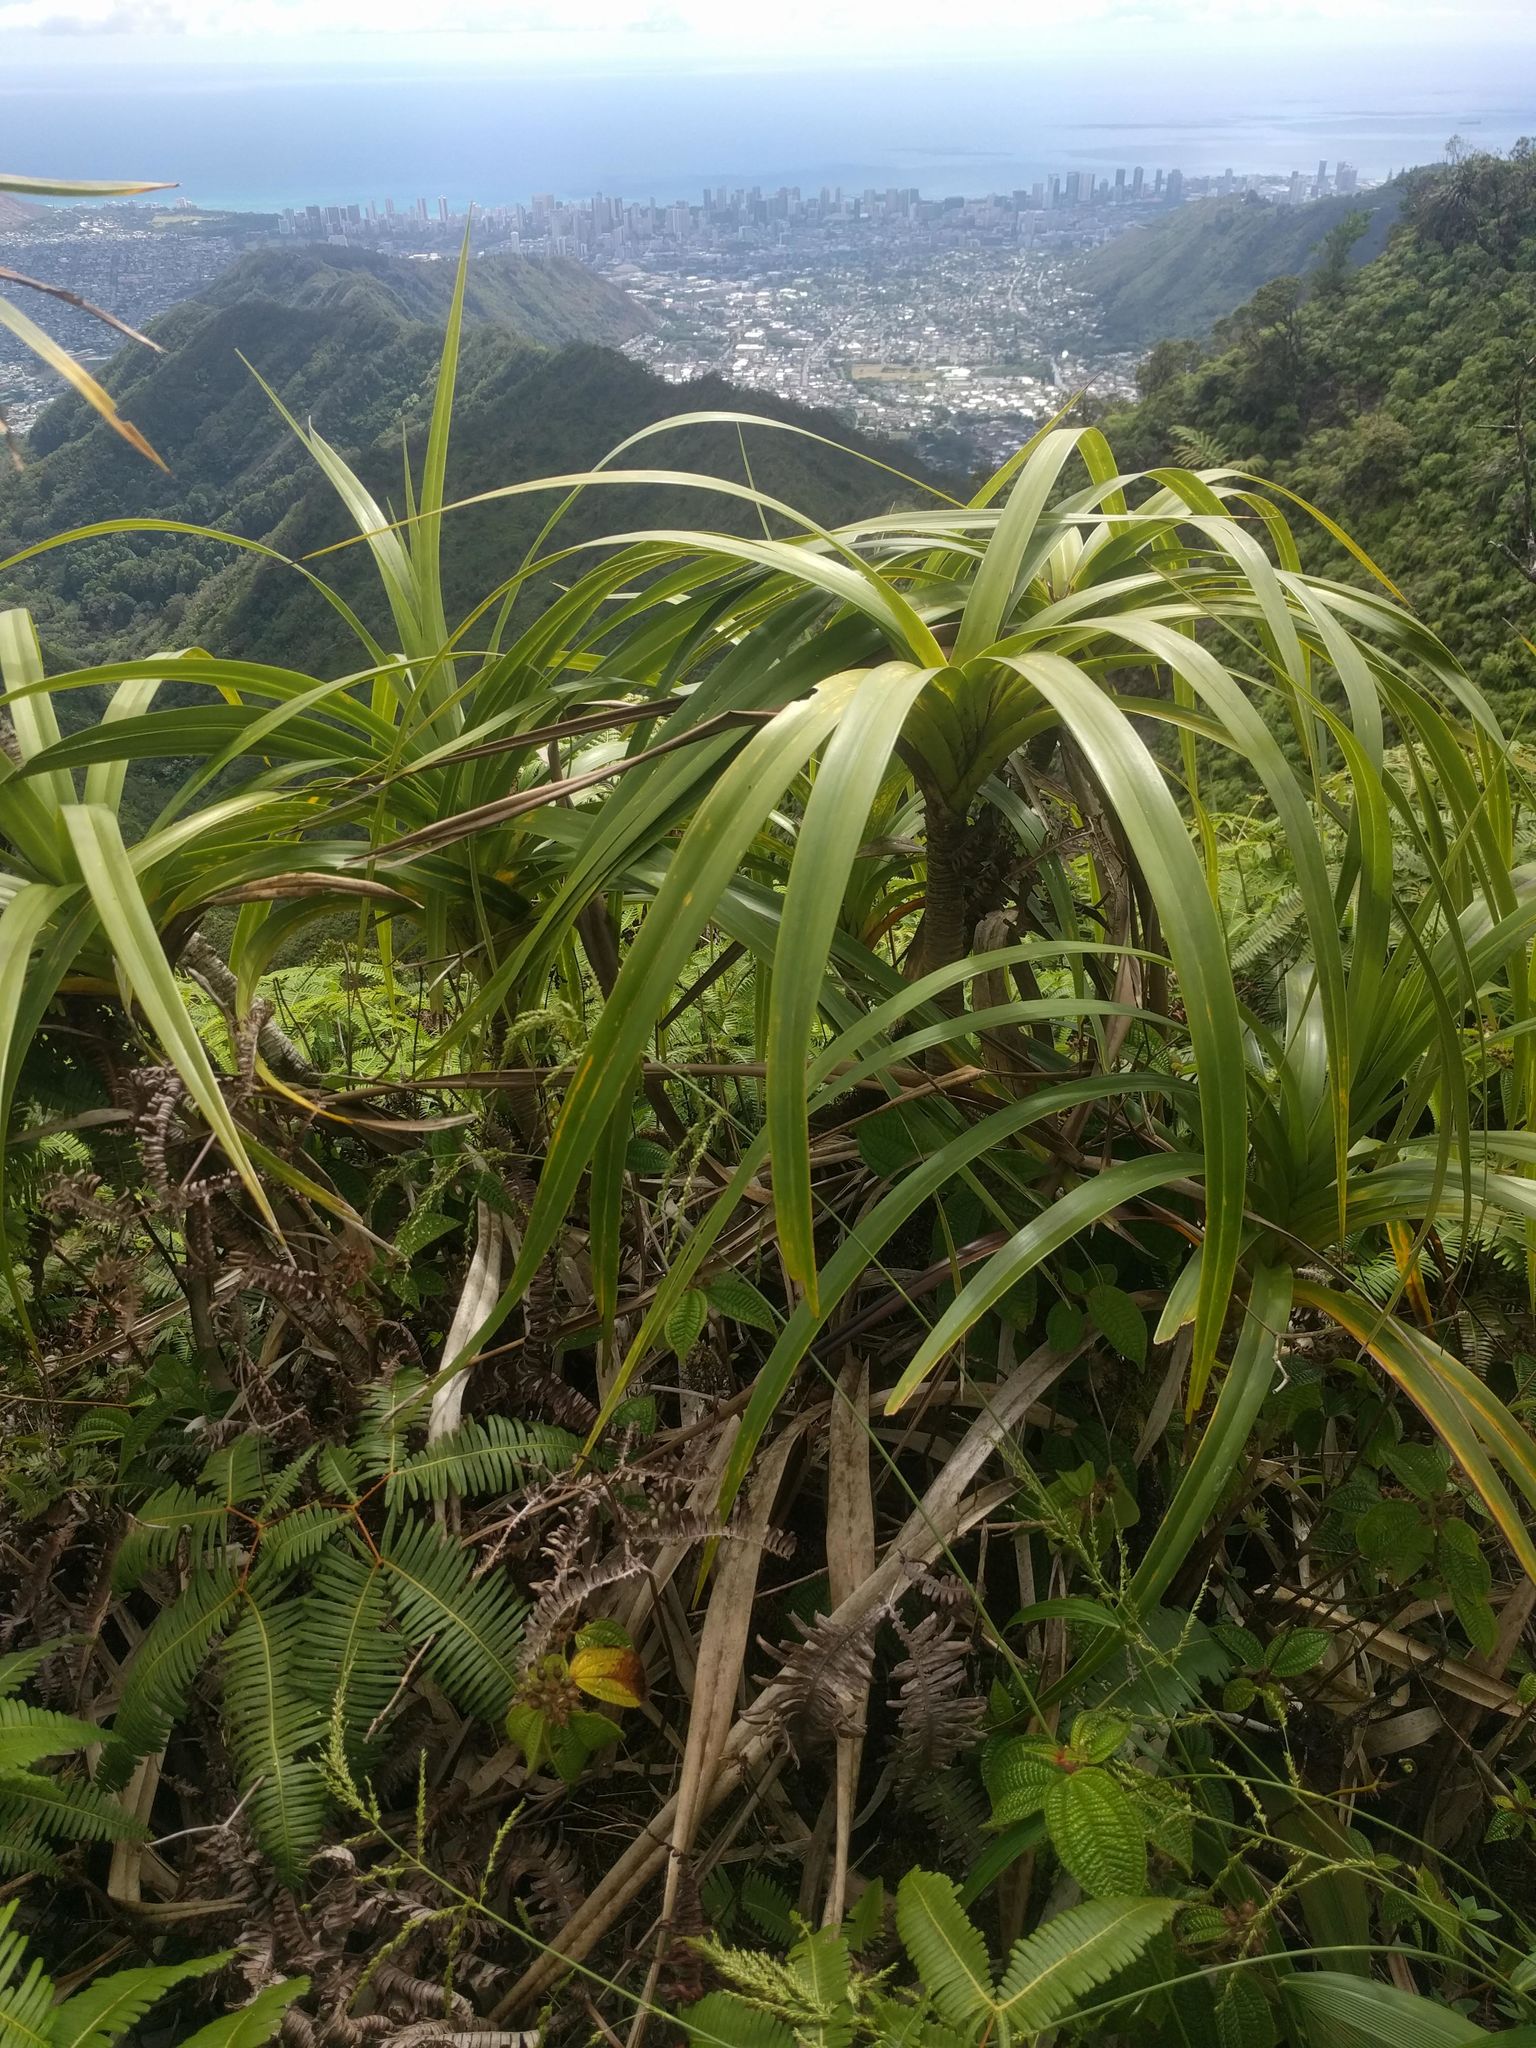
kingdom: Plantae
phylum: Tracheophyta
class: Liliopsida
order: Pandanales
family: Pandanaceae
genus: Freycinetia
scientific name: Freycinetia arborea
